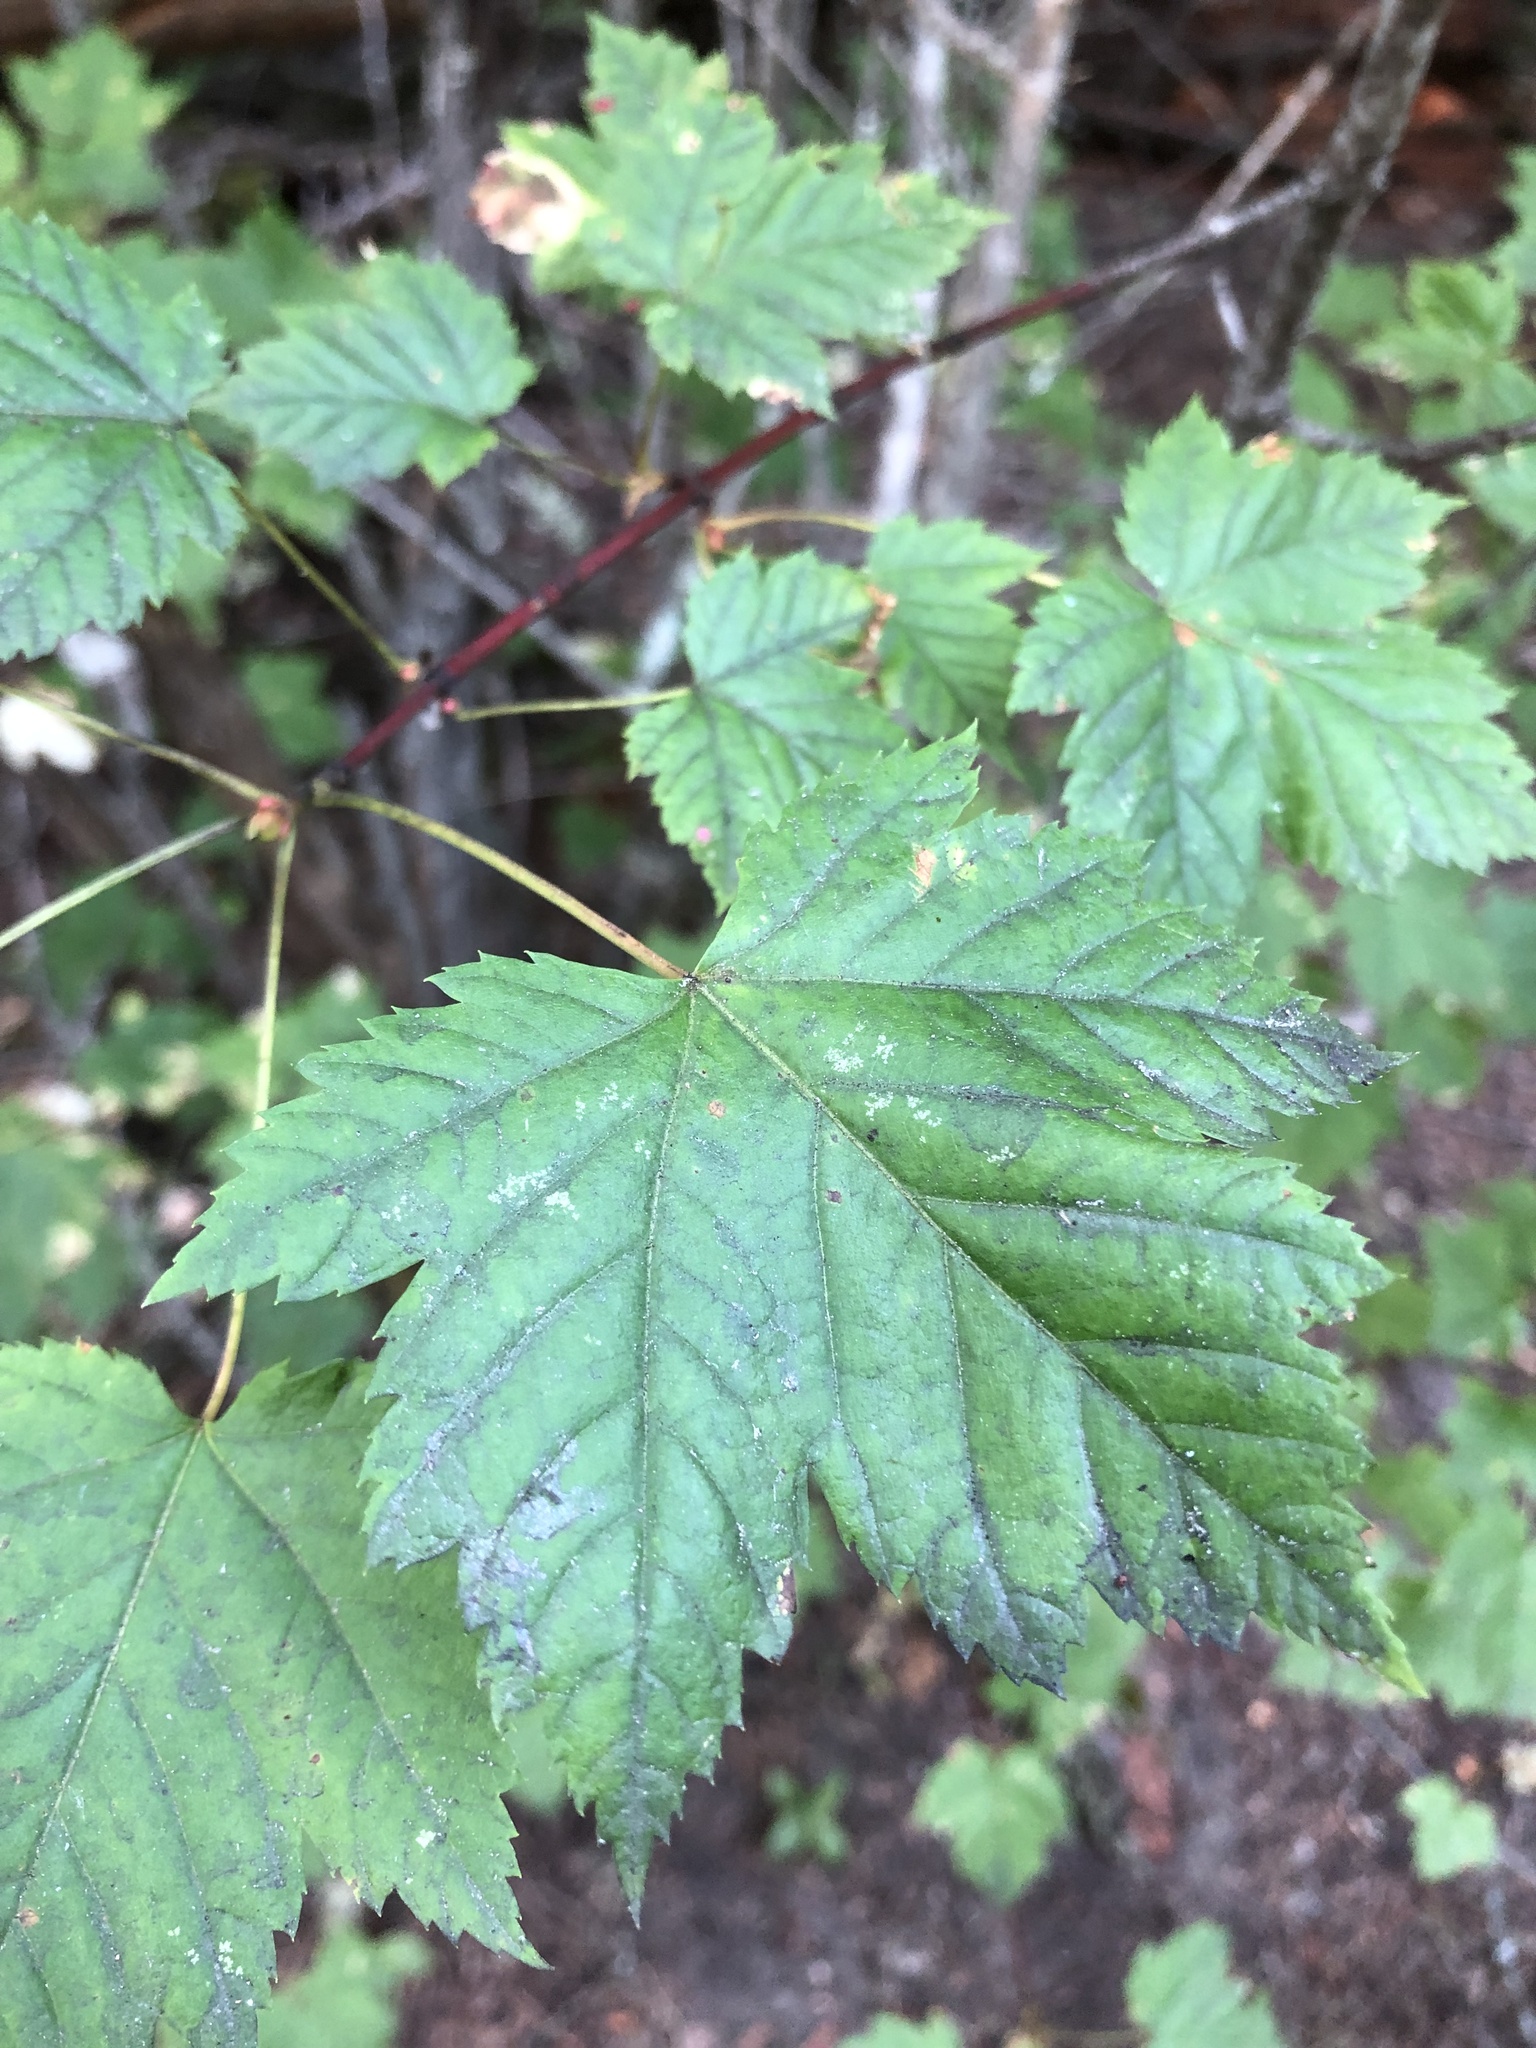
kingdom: Plantae
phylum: Tracheophyta
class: Magnoliopsida
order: Sapindales
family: Sapindaceae
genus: Acer
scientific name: Acer glabrum
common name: Rocky mountain maple
